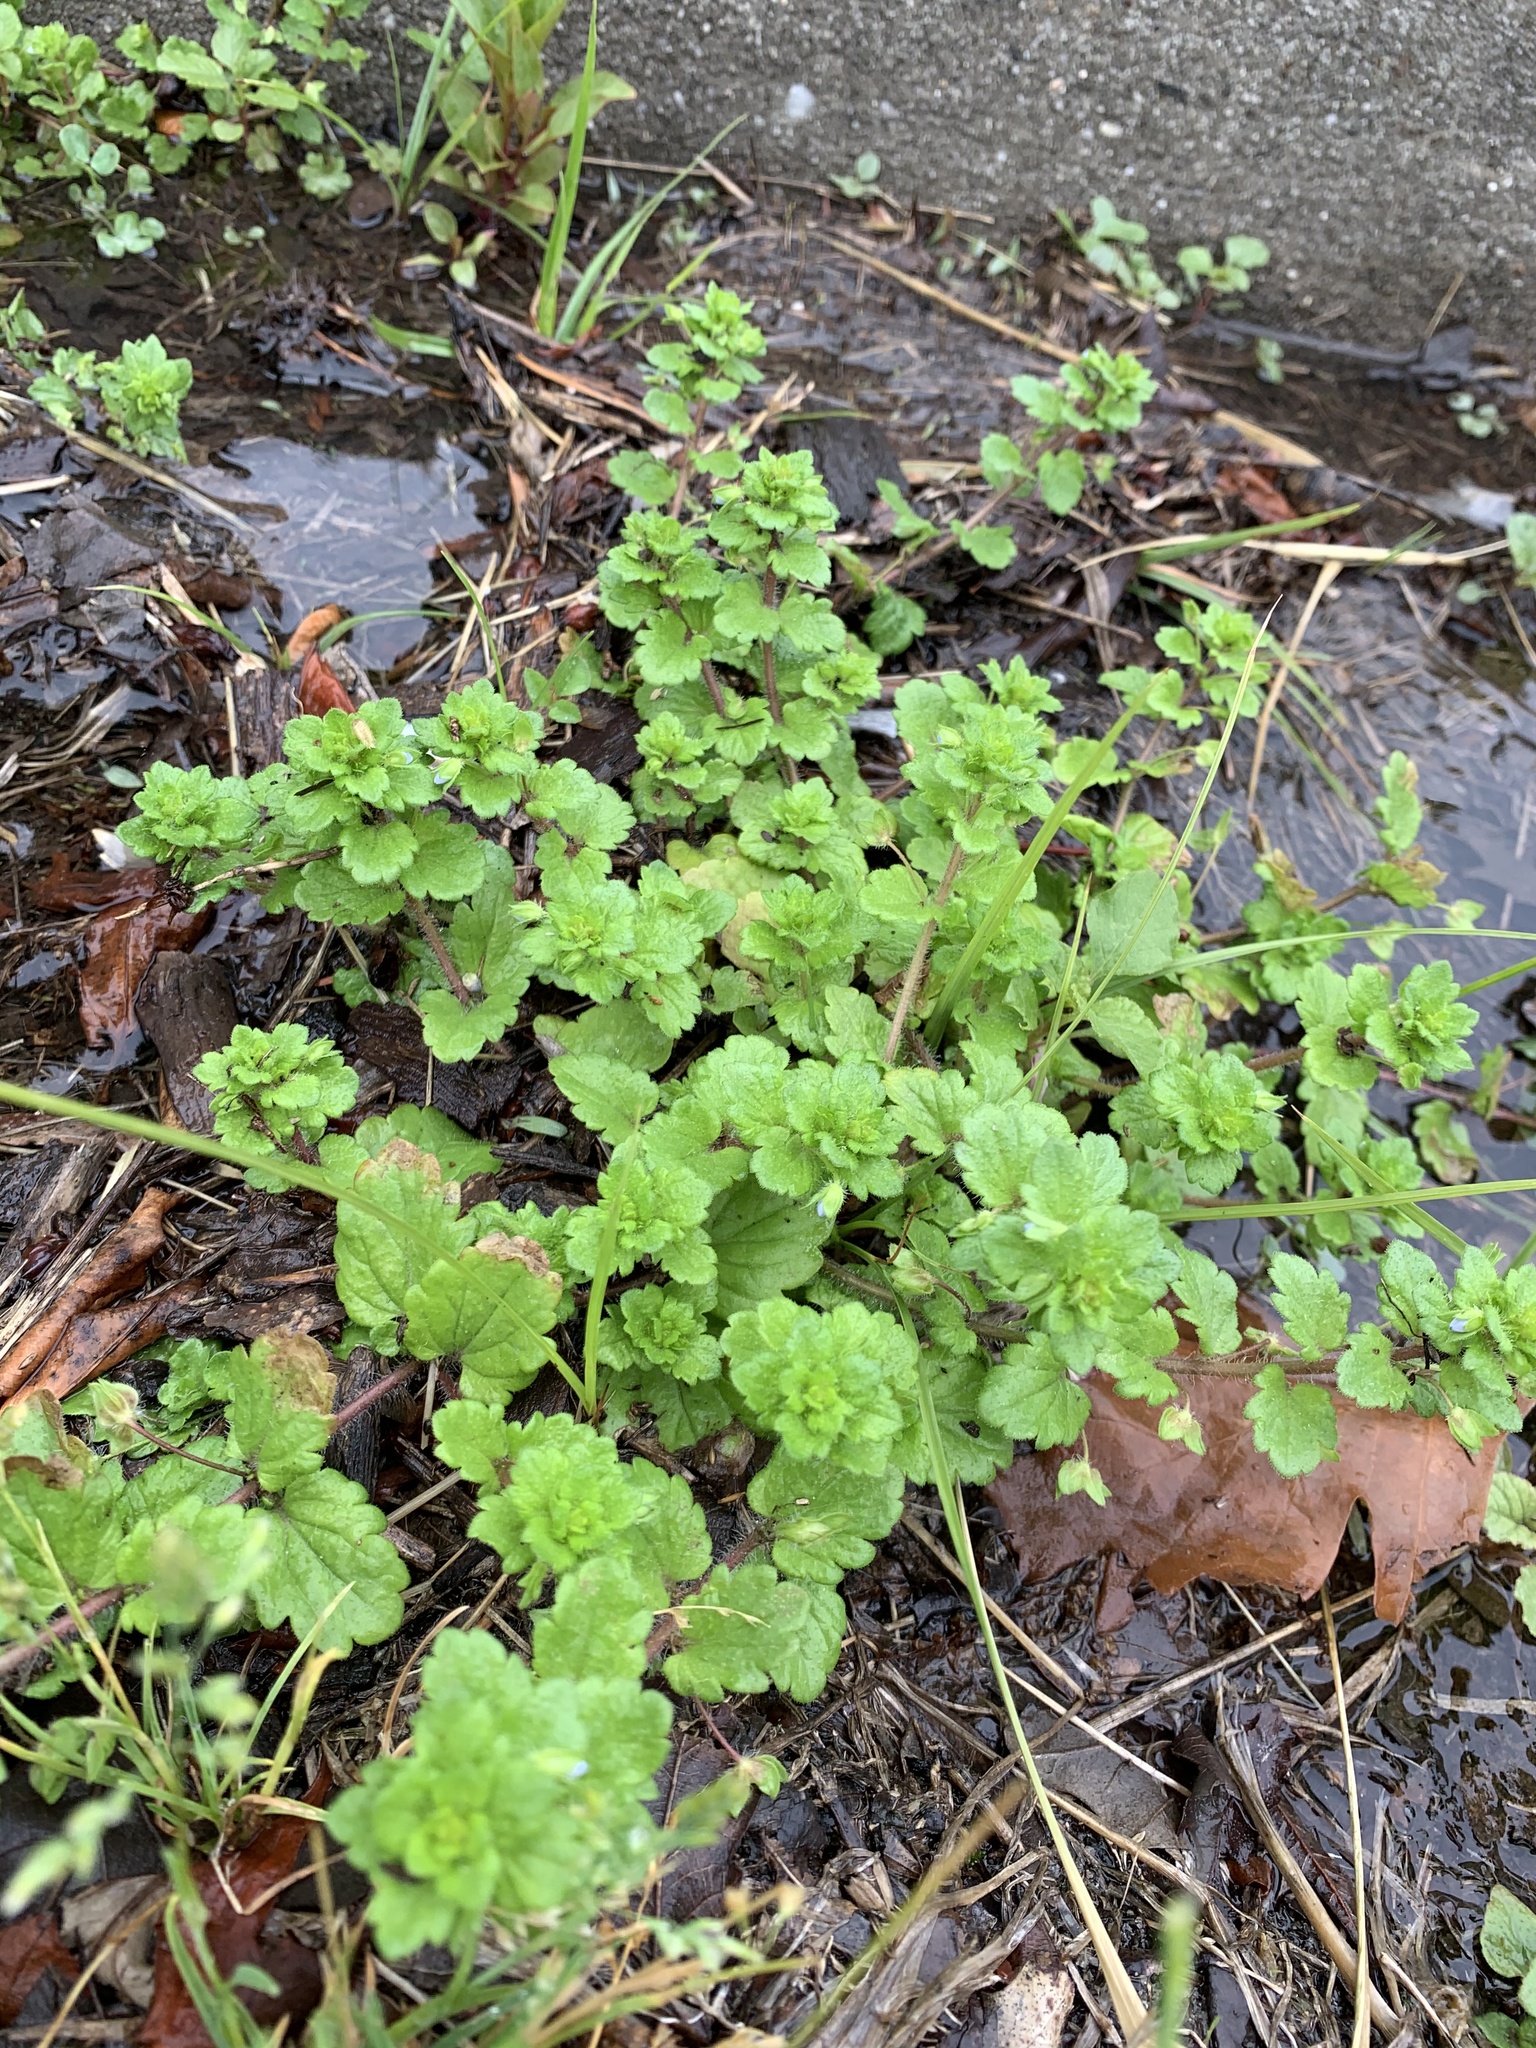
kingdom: Plantae
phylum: Tracheophyta
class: Magnoliopsida
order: Lamiales
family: Plantaginaceae
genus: Veronica
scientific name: Veronica persica
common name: Common field-speedwell
